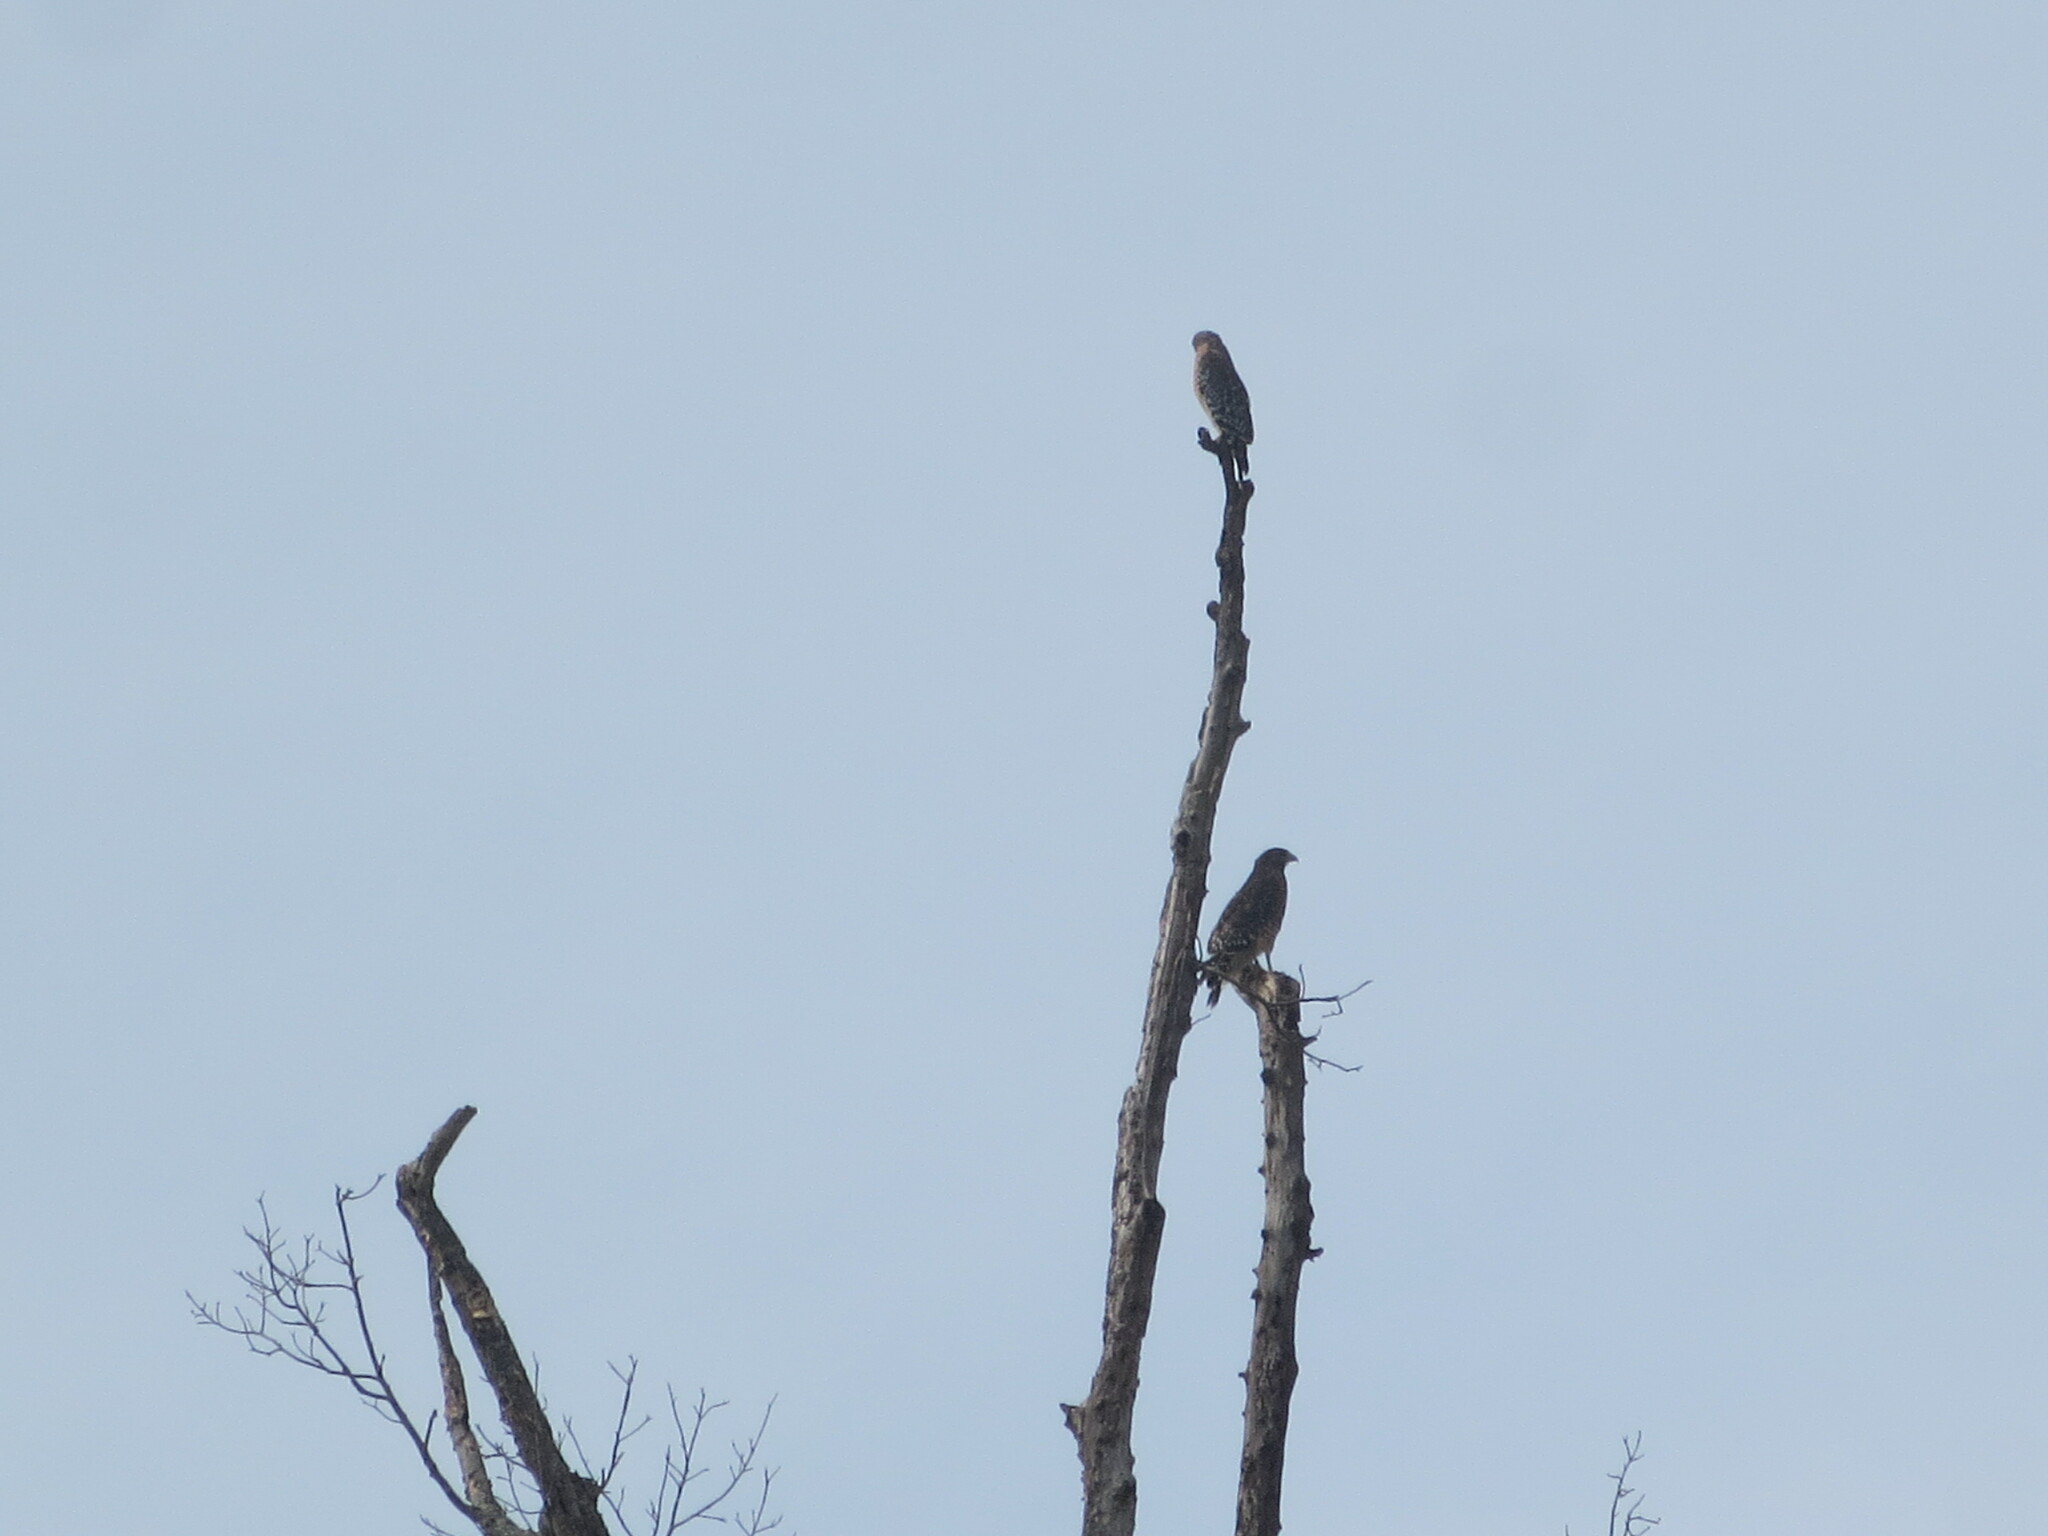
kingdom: Animalia
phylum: Chordata
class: Aves
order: Accipitriformes
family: Accipitridae
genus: Buteo
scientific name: Buteo lineatus
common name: Red-shouldered hawk
